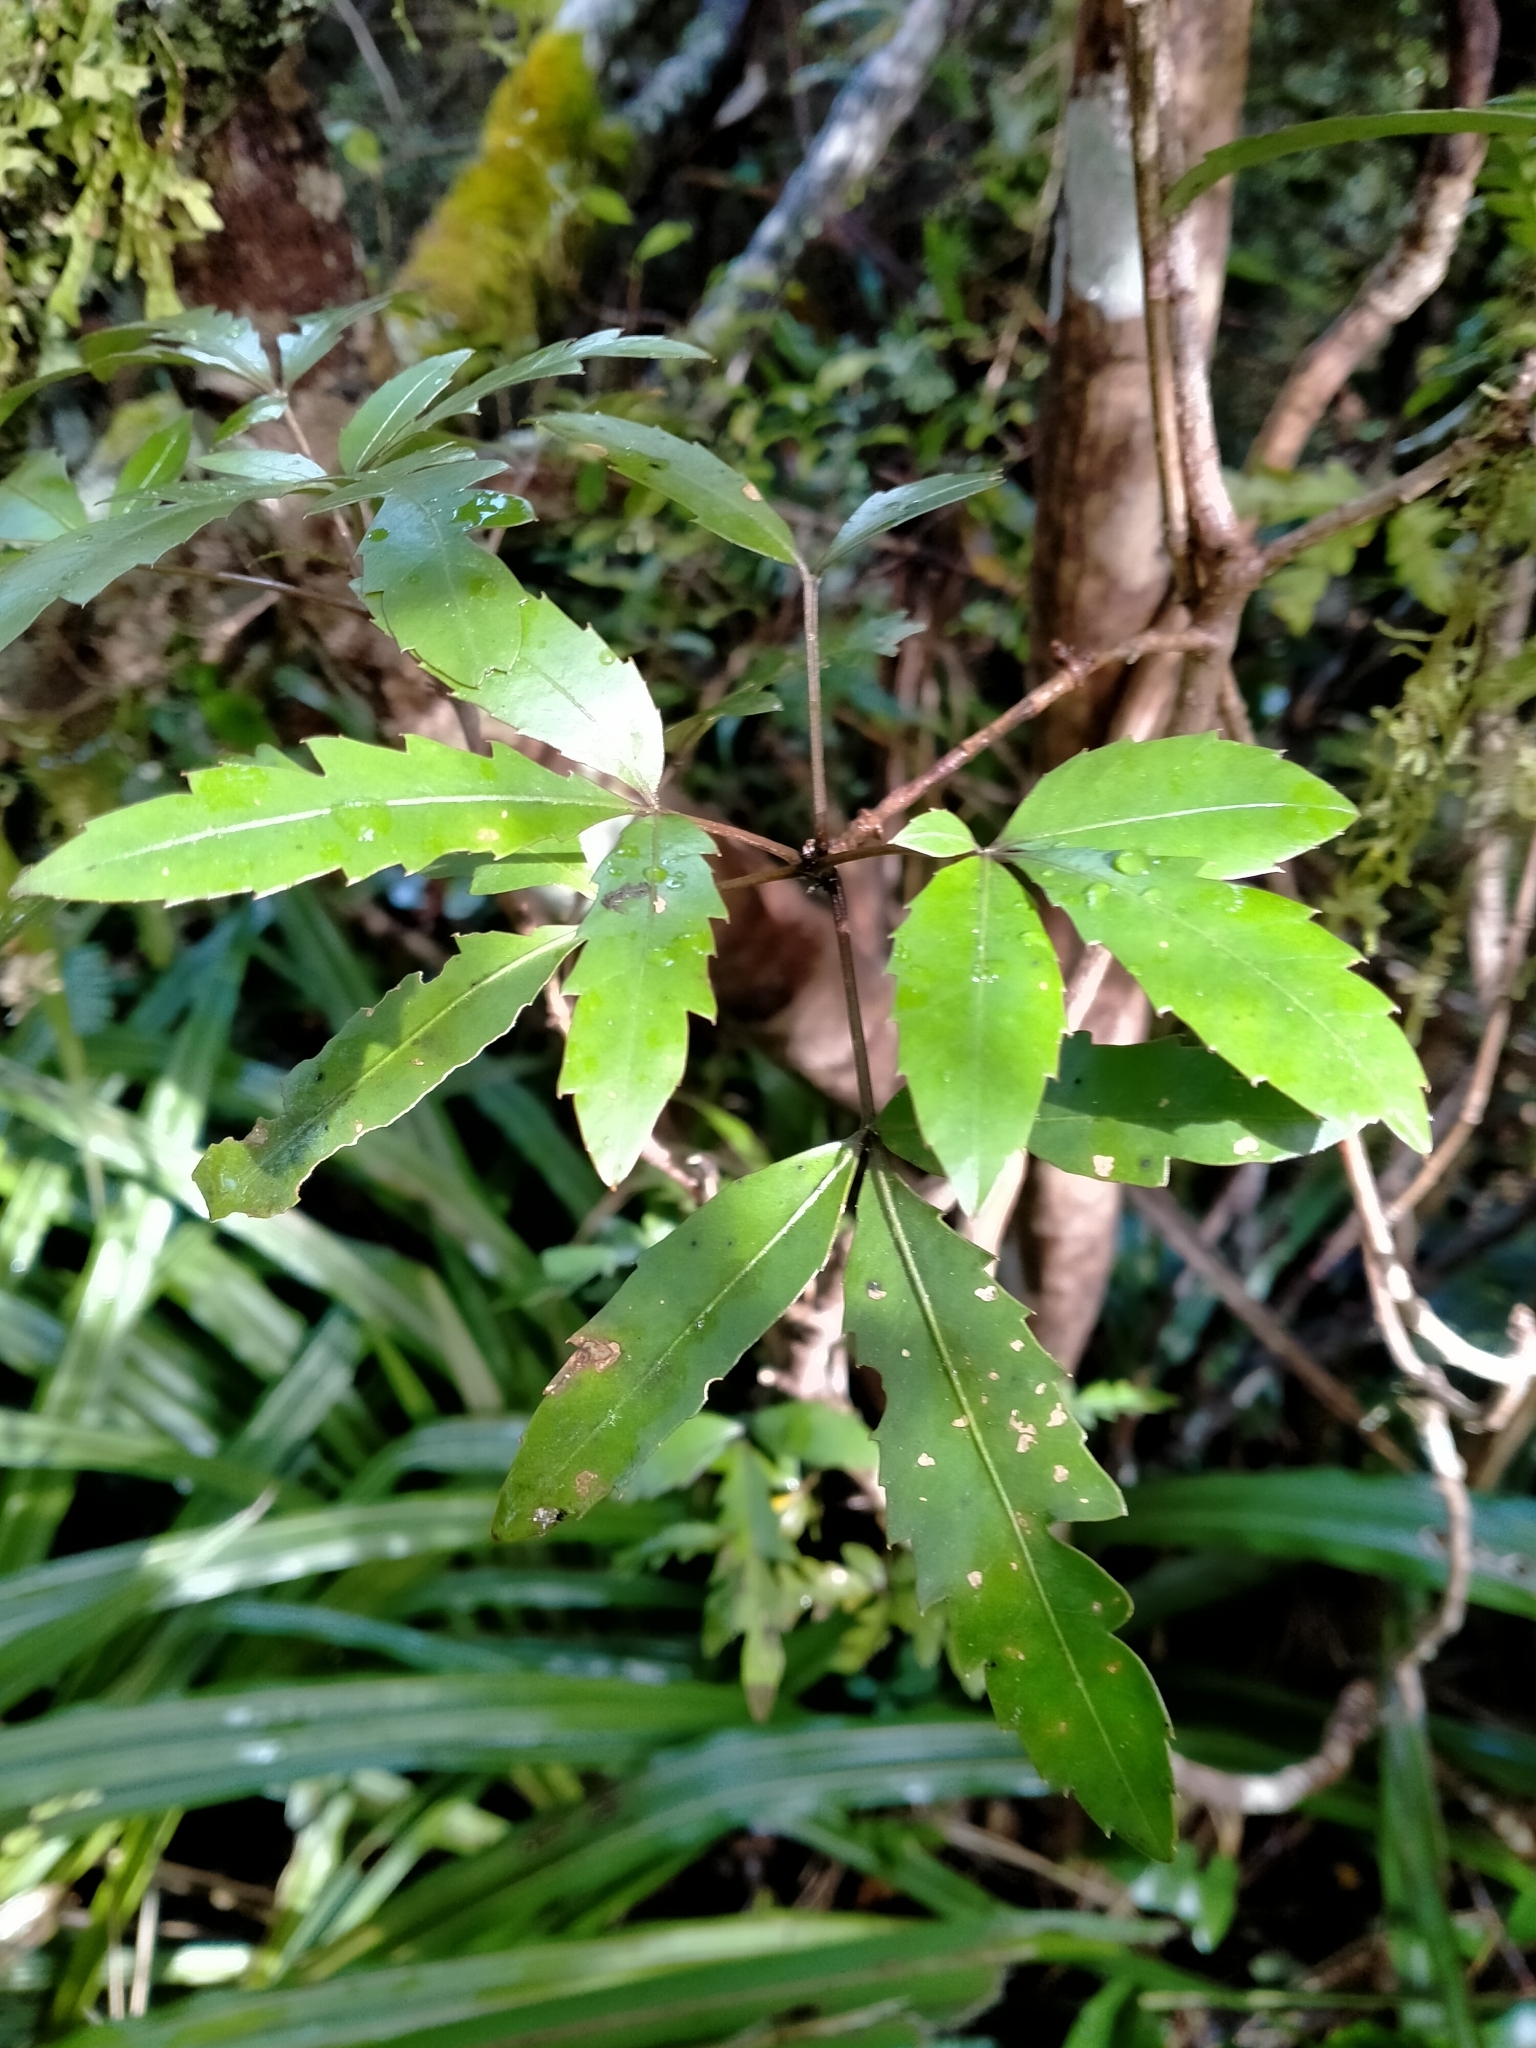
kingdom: Plantae
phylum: Tracheophyta
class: Magnoliopsida
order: Apiales
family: Araliaceae
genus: Raukaua
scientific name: Raukaua simplex
